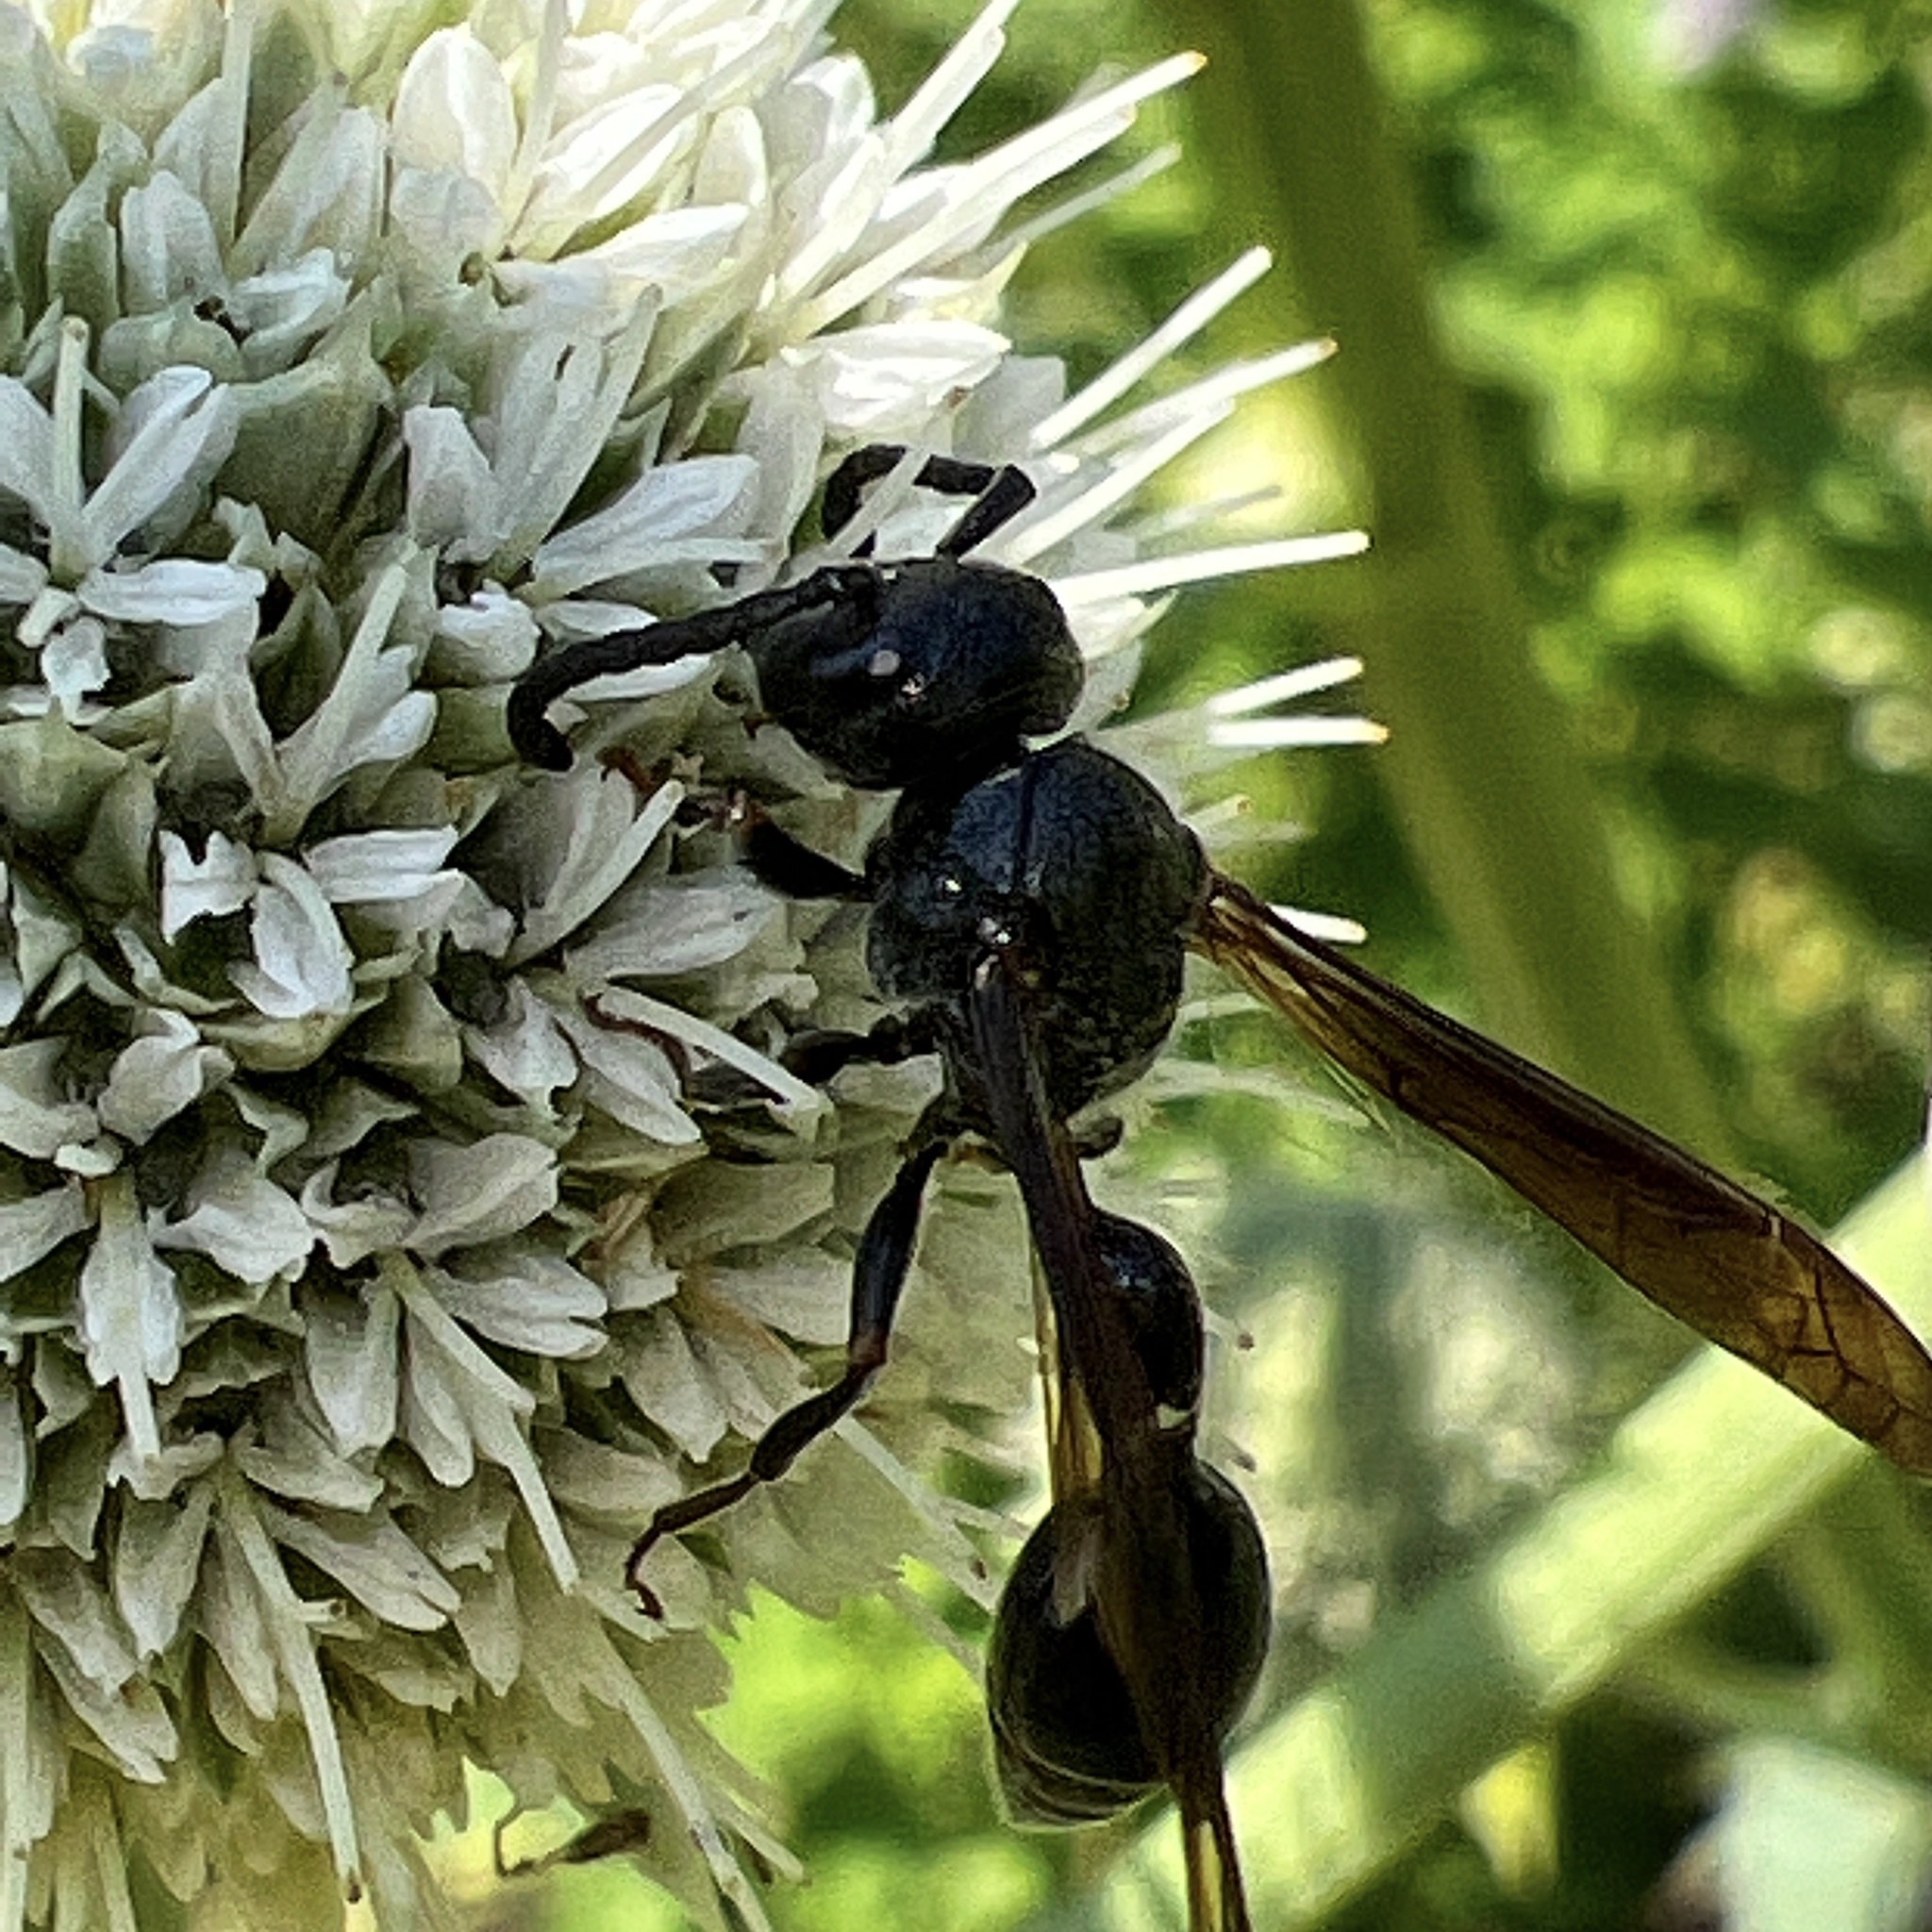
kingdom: Animalia
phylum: Arthropoda
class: Insecta
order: Hymenoptera
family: Eumenidae
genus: Zethus
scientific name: Zethus spinipes
